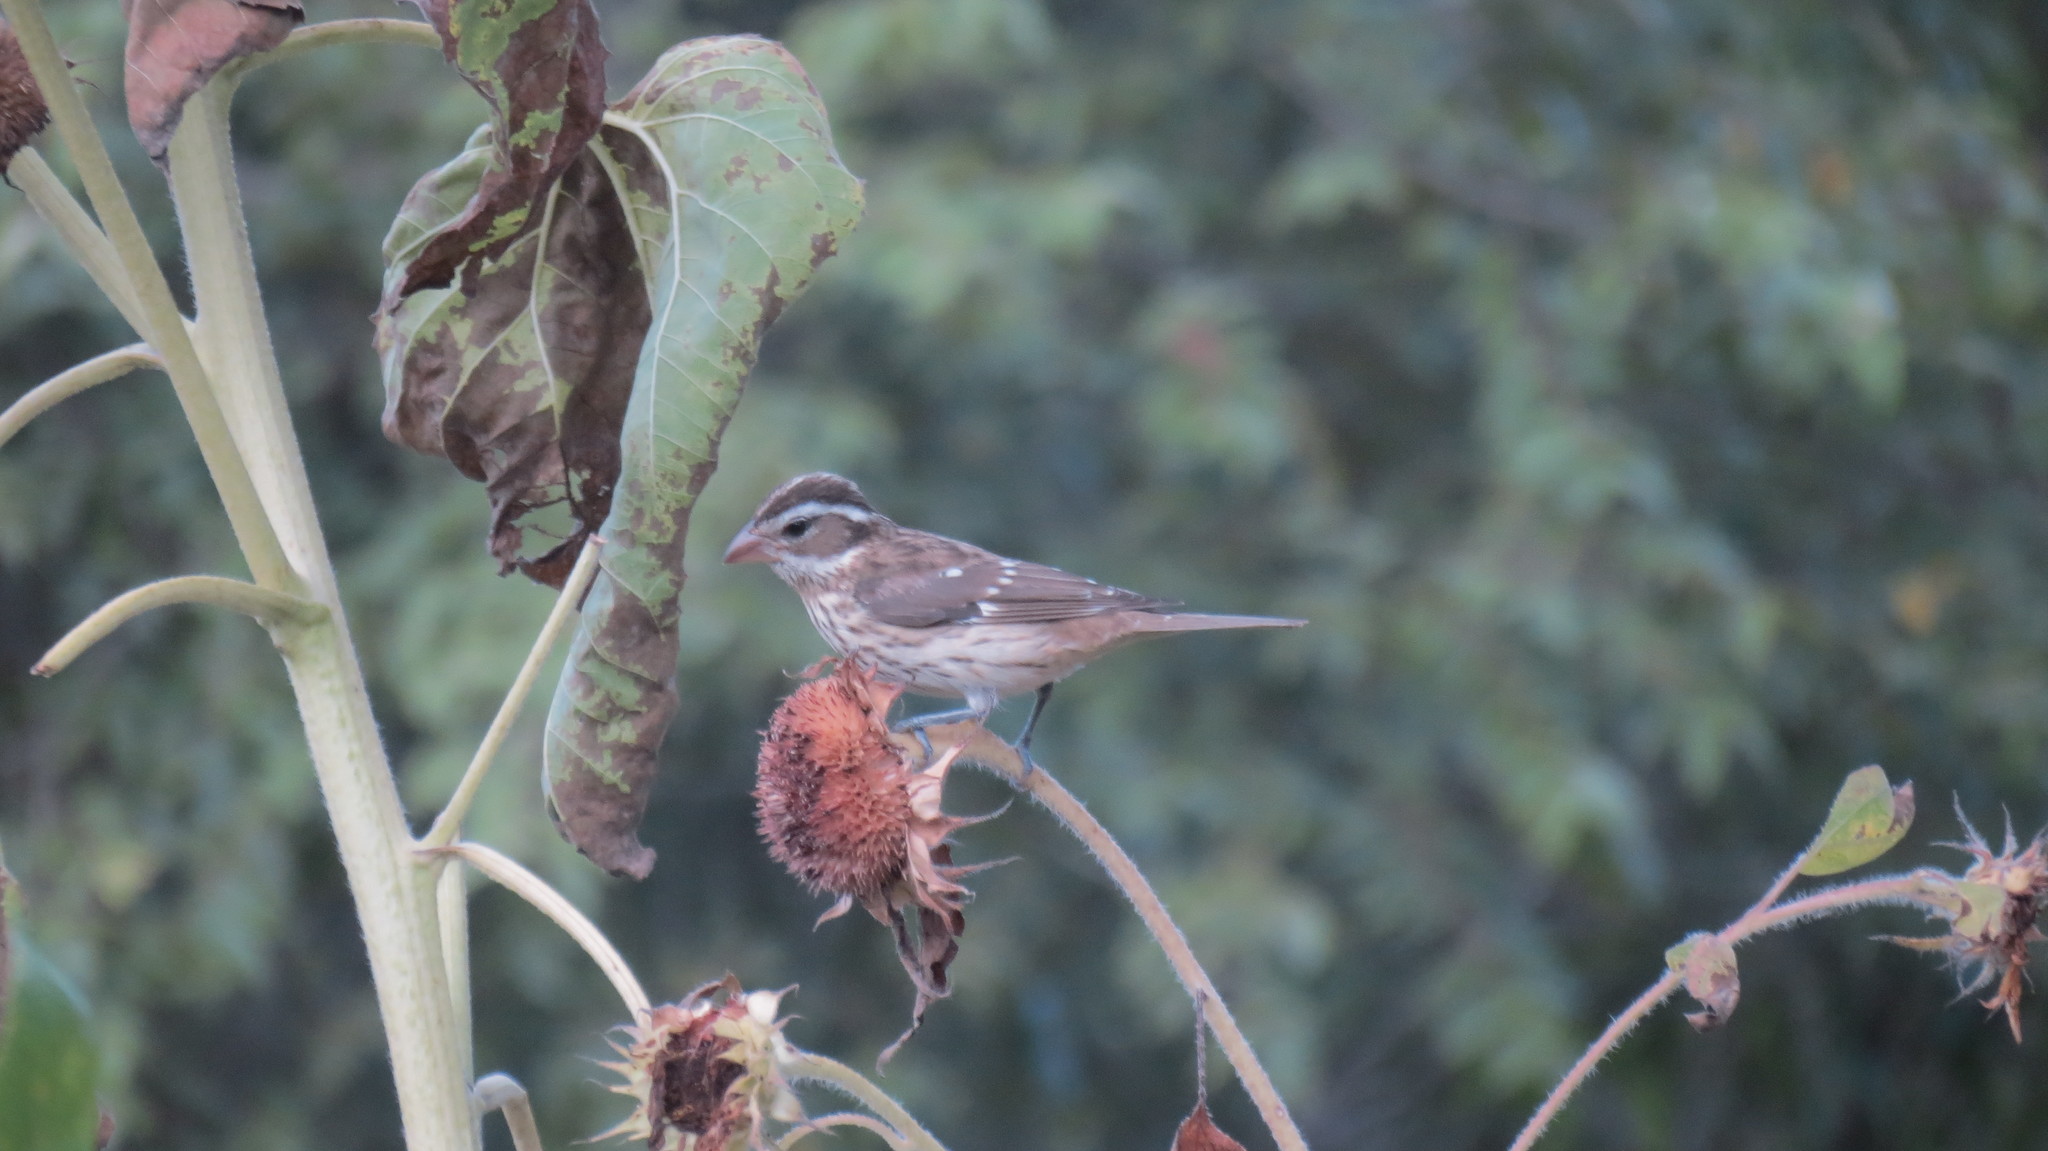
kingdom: Animalia
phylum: Chordata
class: Aves
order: Passeriformes
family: Cardinalidae
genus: Pheucticus
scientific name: Pheucticus ludovicianus
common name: Rose-breasted grosbeak
